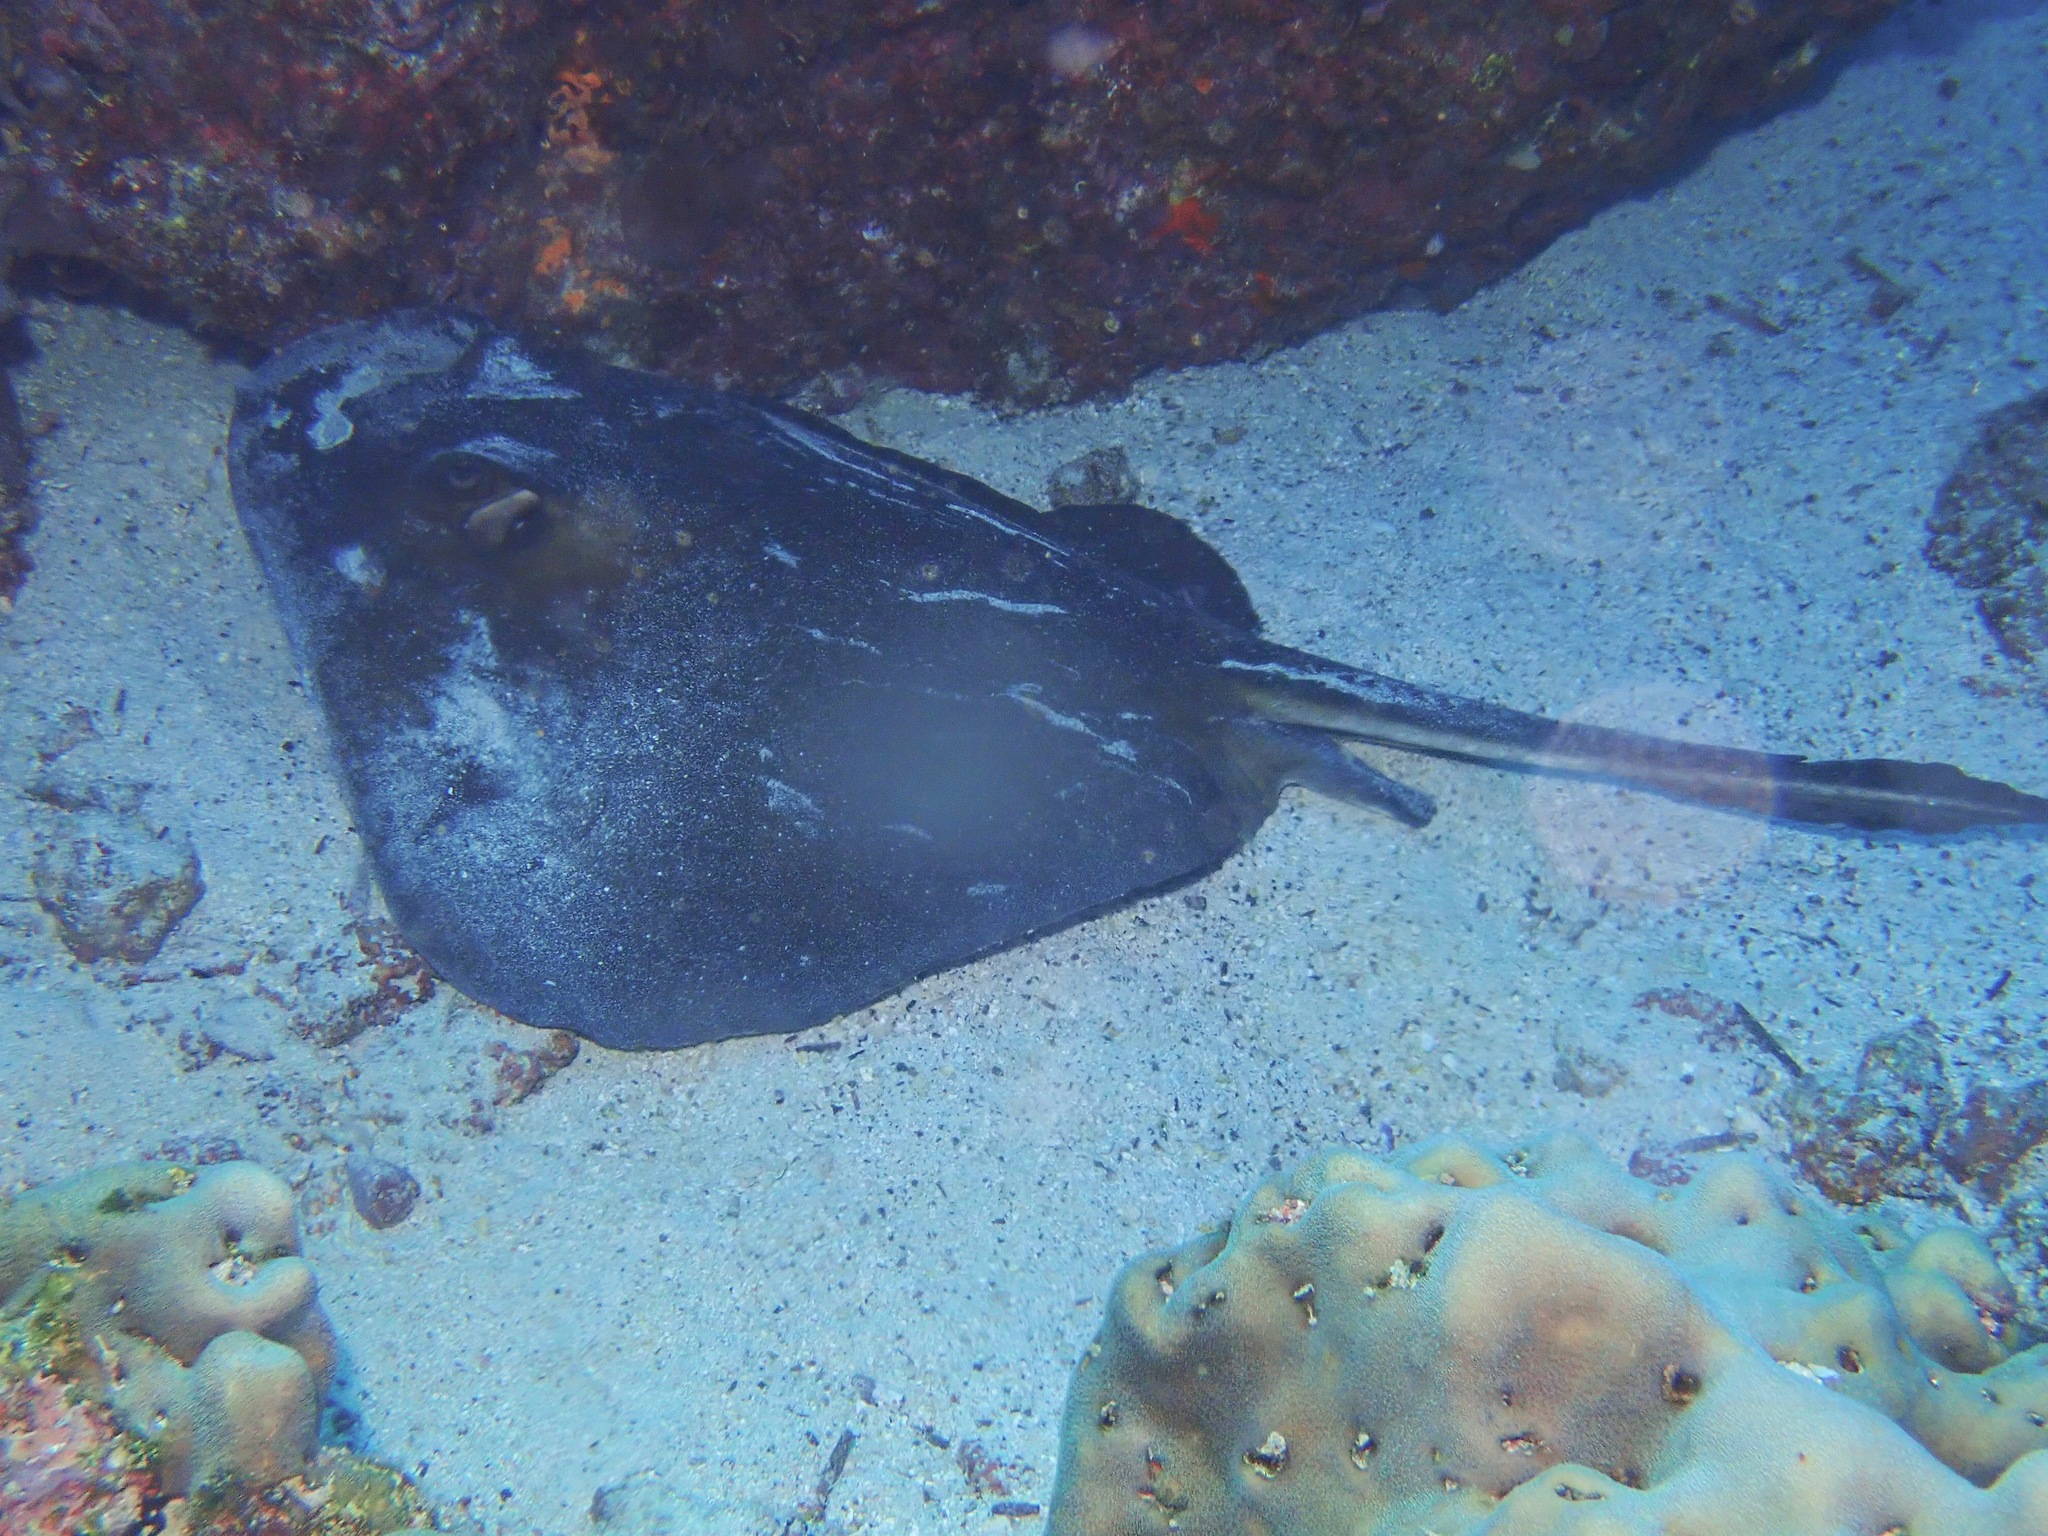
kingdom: Animalia
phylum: Chordata
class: Elasmobranchii
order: Myliobatiformes
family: Dasyatidae
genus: Hypanus
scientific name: Hypanus dipterurus
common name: Diamond stingray
